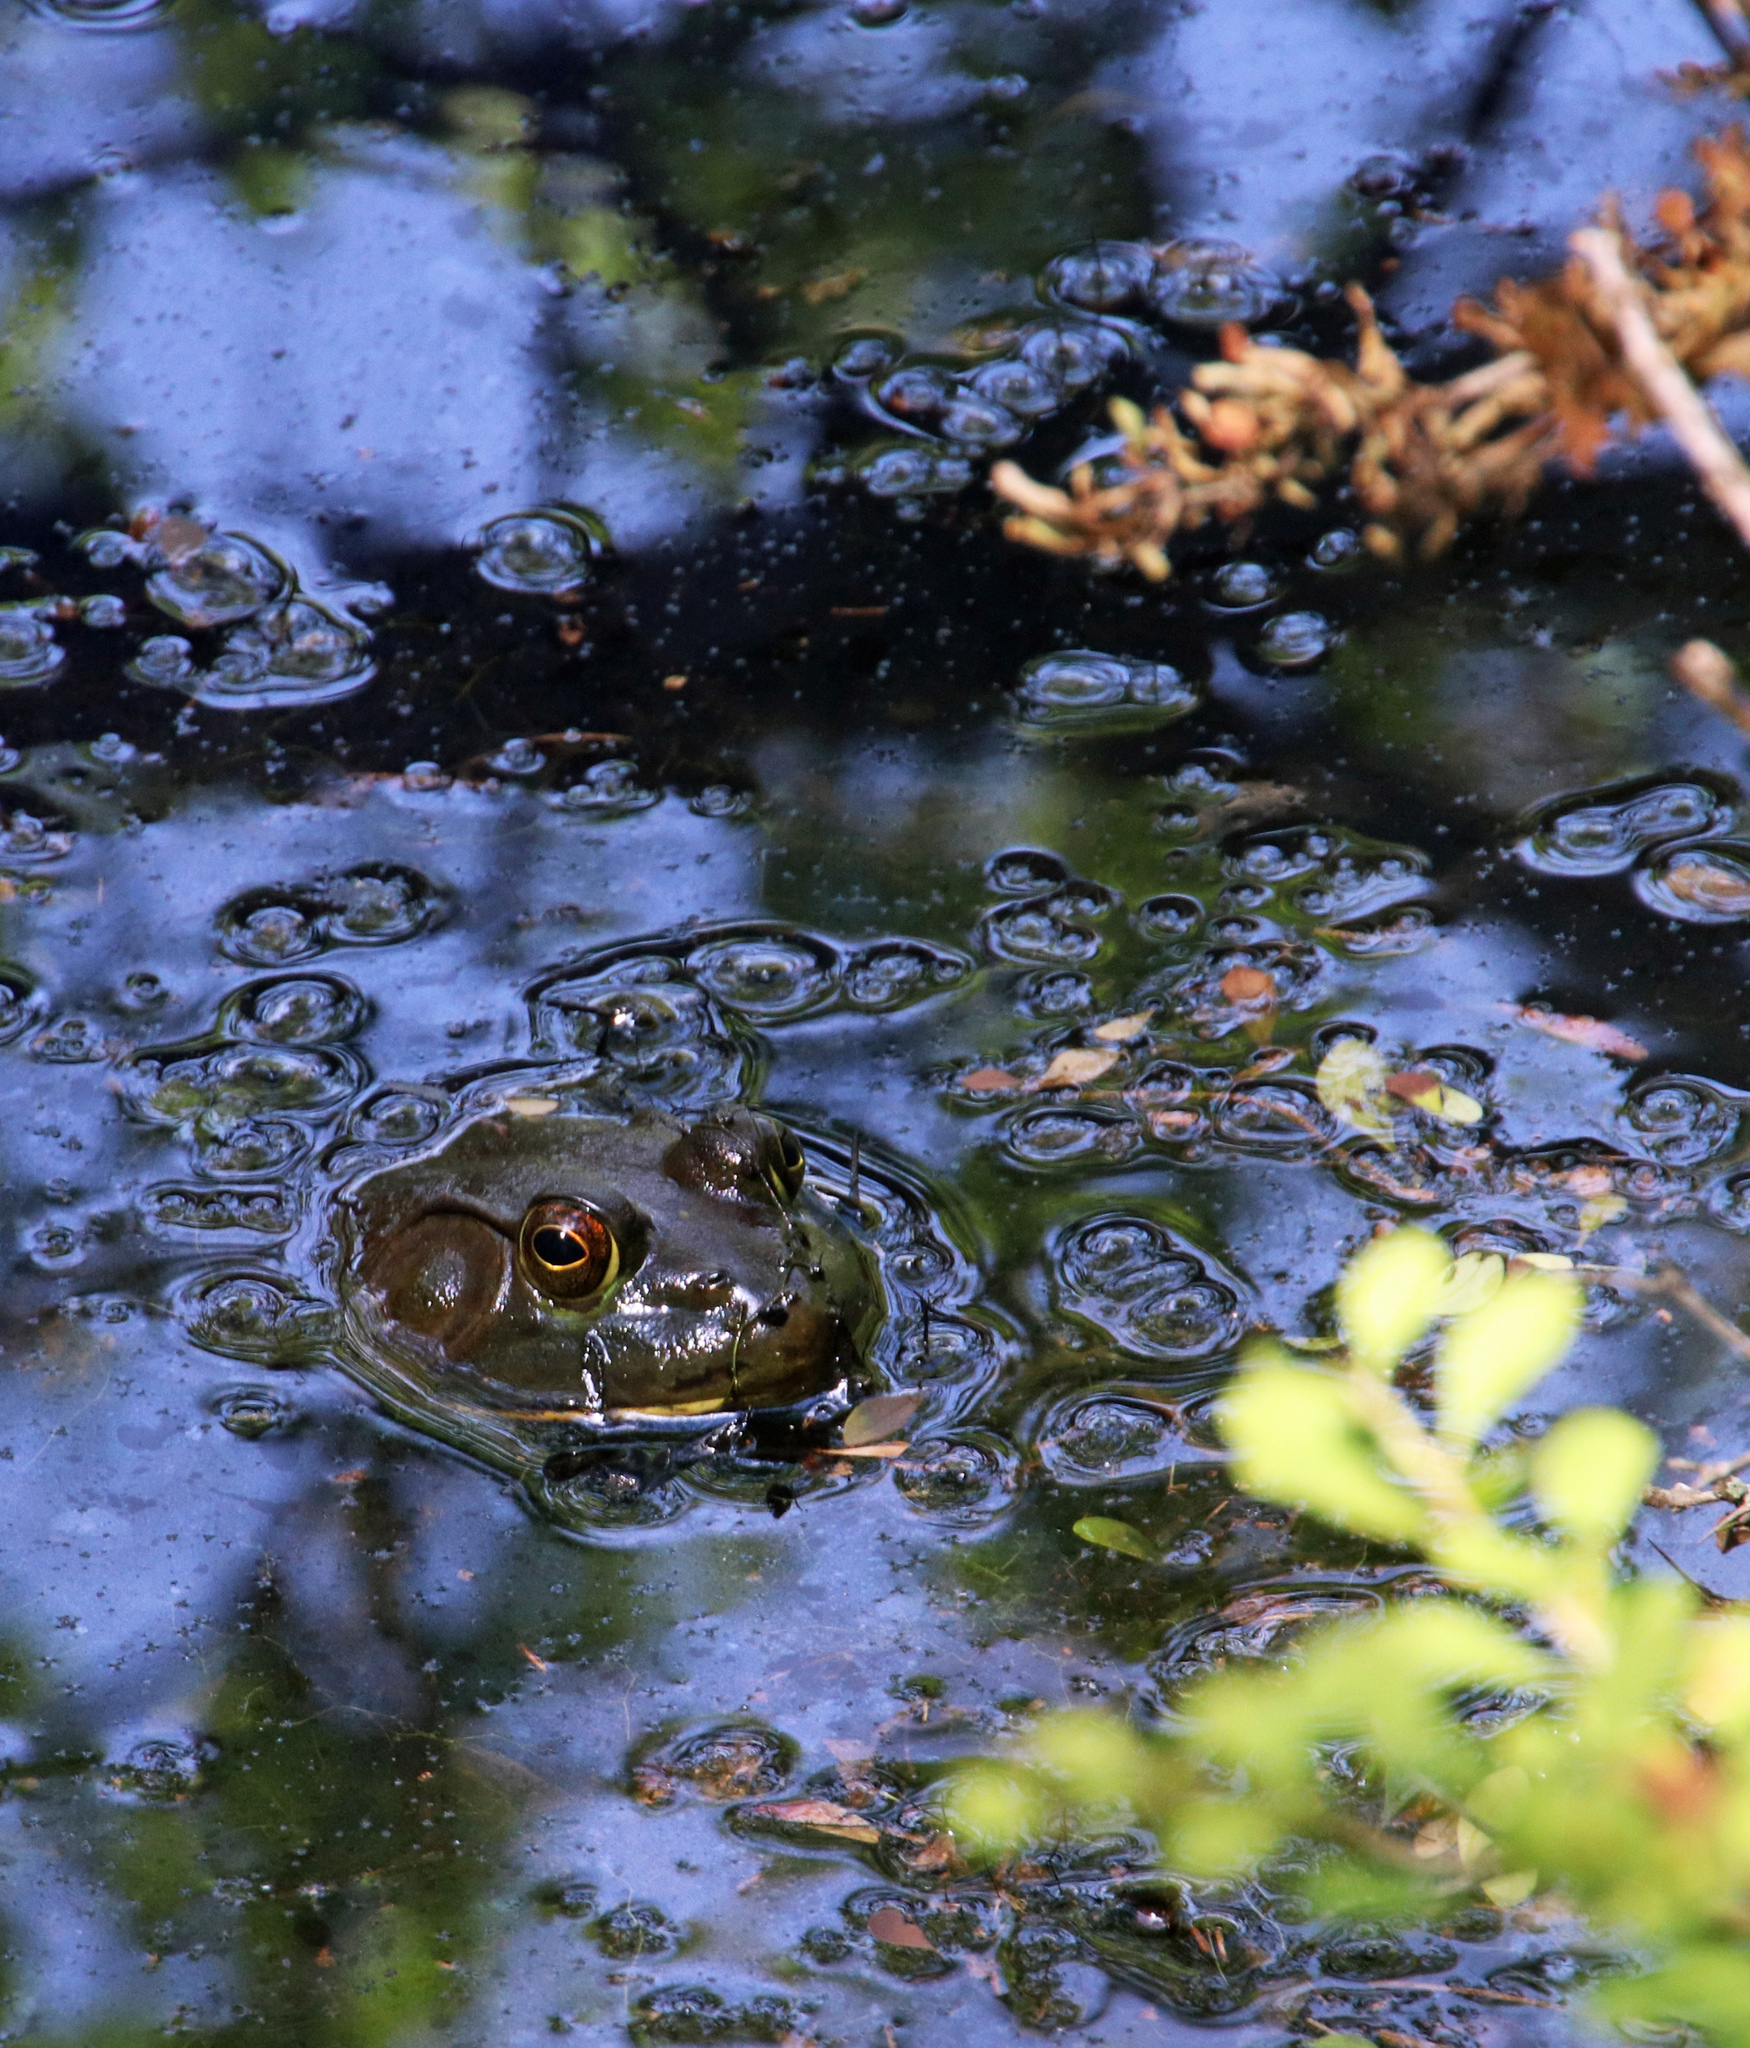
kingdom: Animalia
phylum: Chordata
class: Amphibia
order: Anura
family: Ranidae
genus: Lithobates
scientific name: Lithobates catesbeianus
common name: American bullfrog
